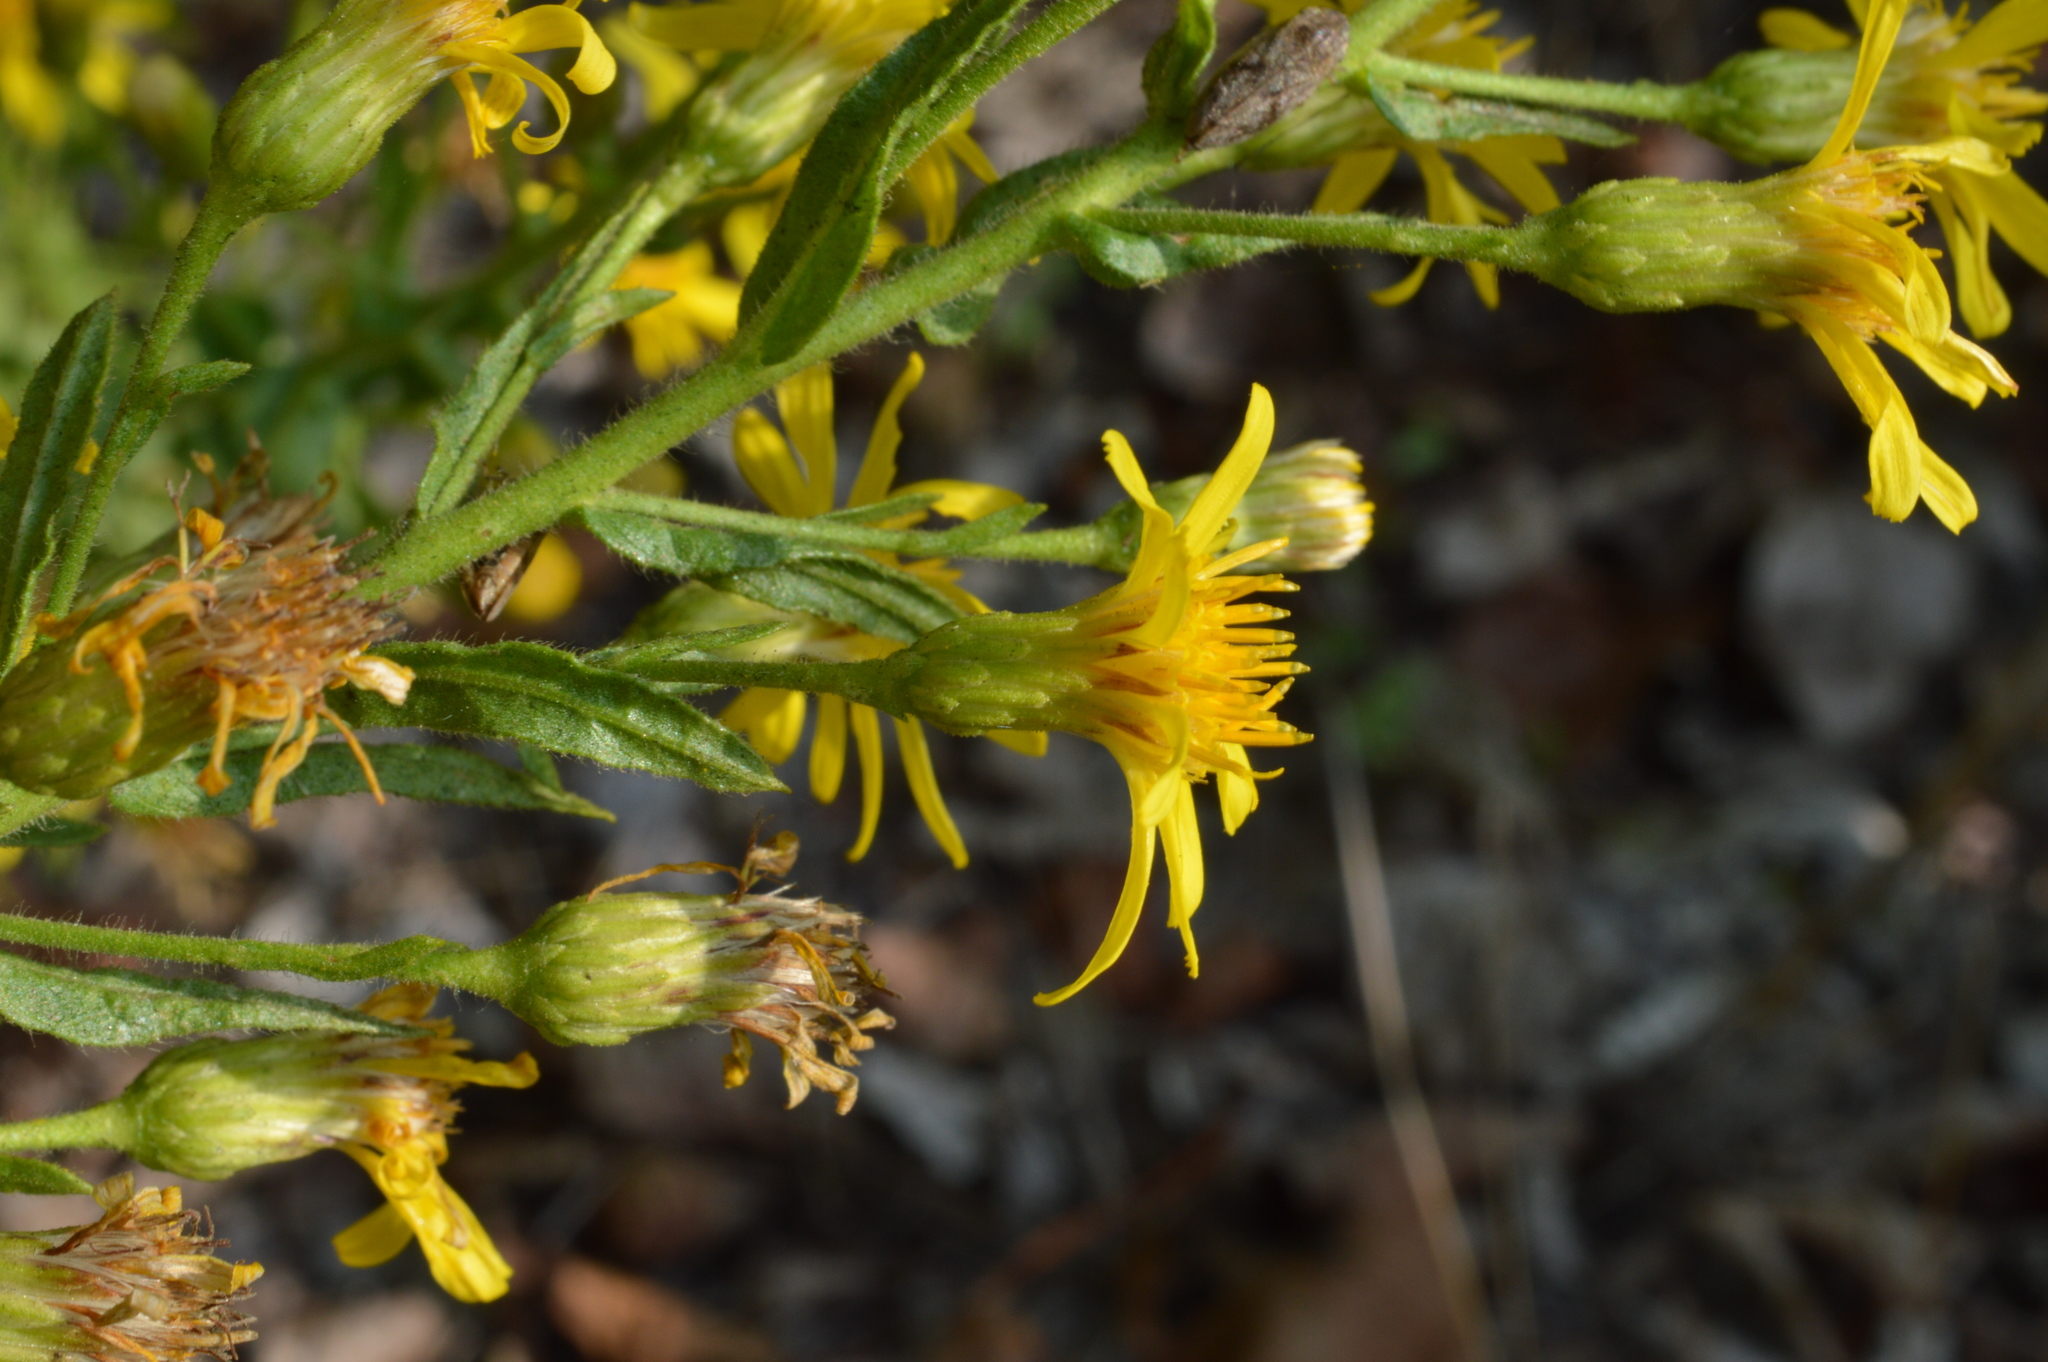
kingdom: Plantae
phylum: Tracheophyta
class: Magnoliopsida
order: Asterales
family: Asteraceae
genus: Dittrichia
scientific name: Dittrichia viscosa
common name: Woody fleabane
